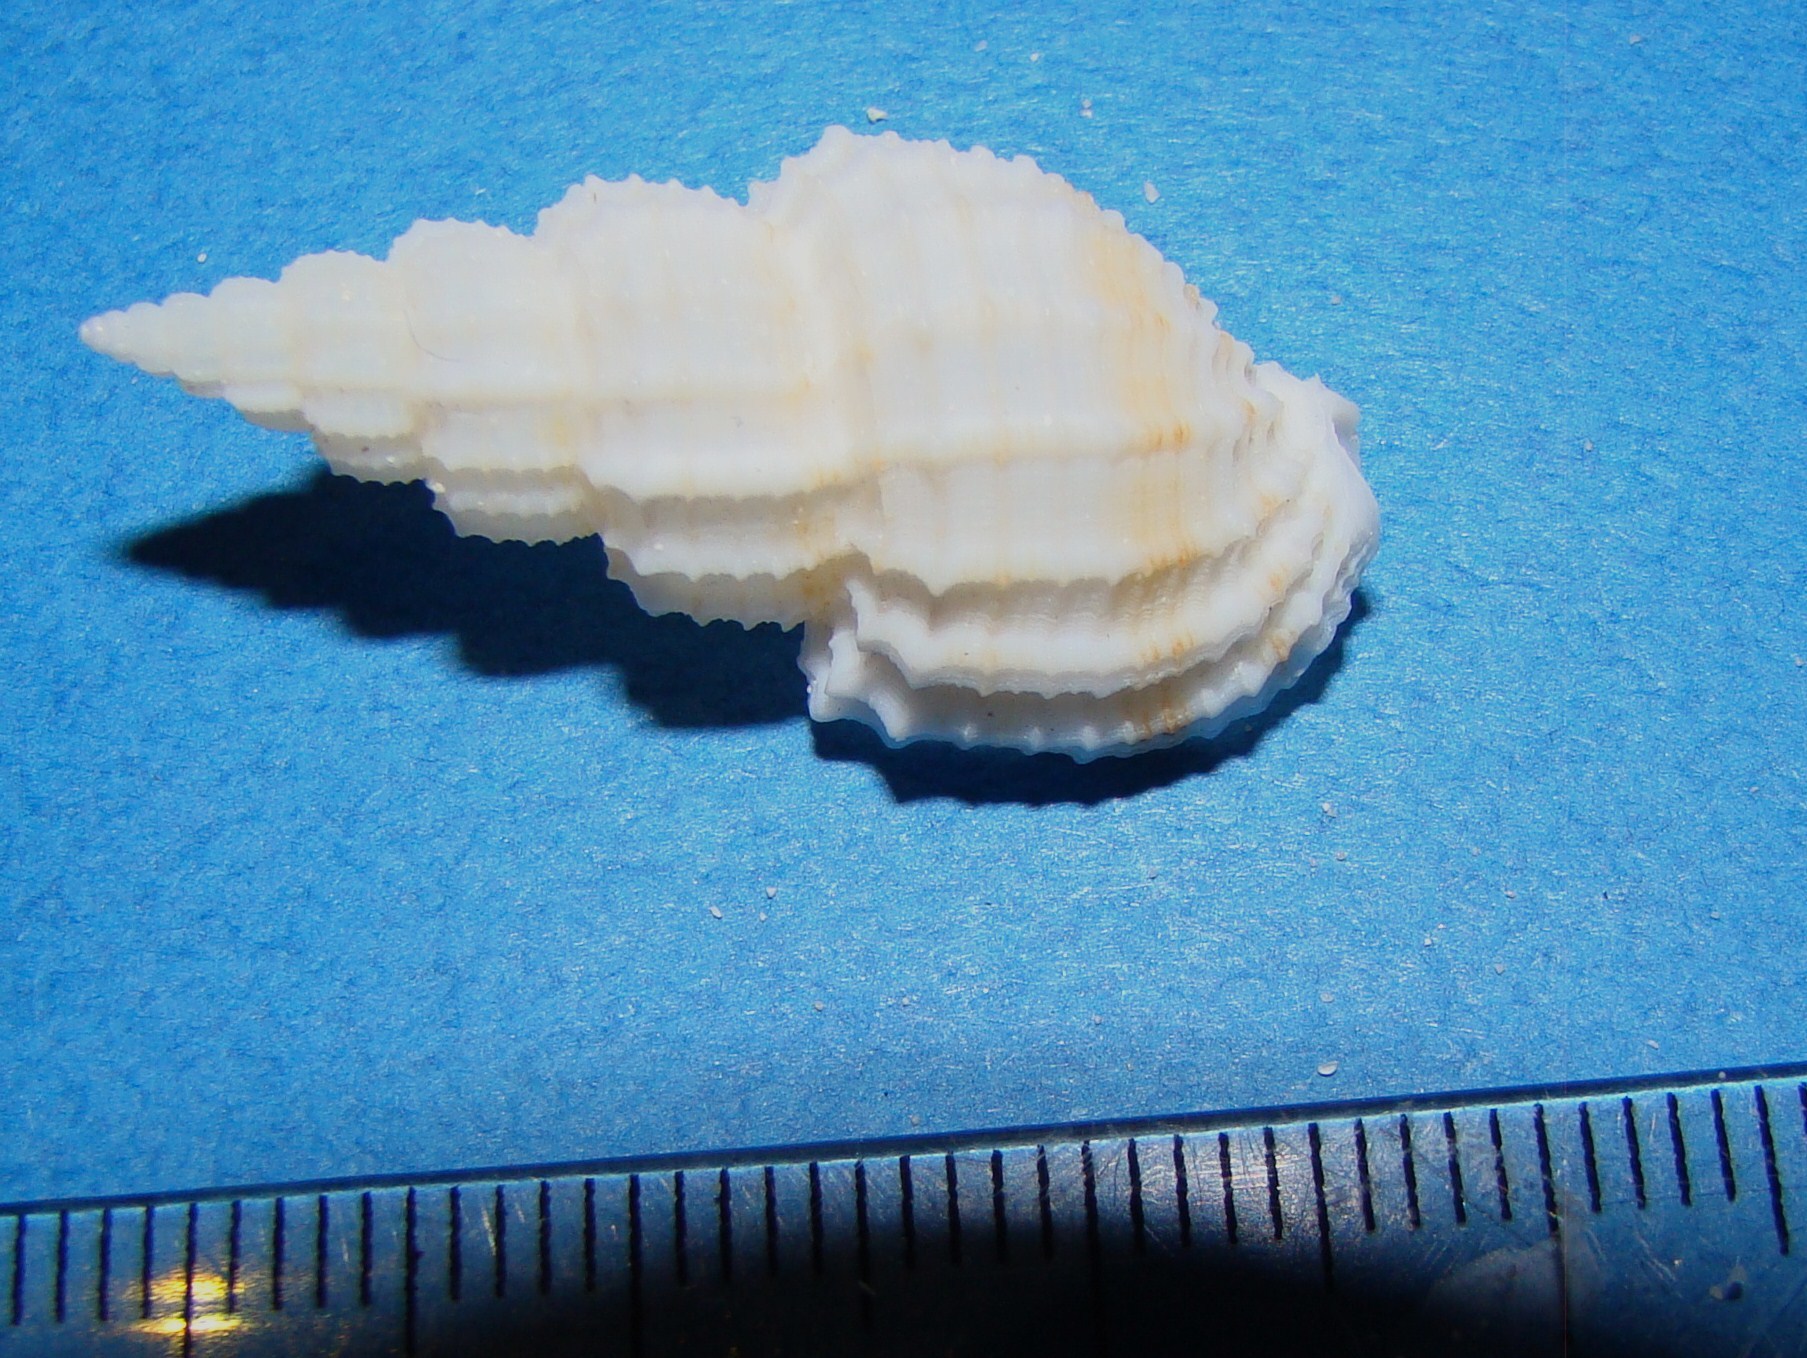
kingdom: Animalia
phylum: Mollusca
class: Gastropoda
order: Neogastropoda
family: Nassariidae
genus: Phos
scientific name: Phos senticosus
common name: Common pacific phos
